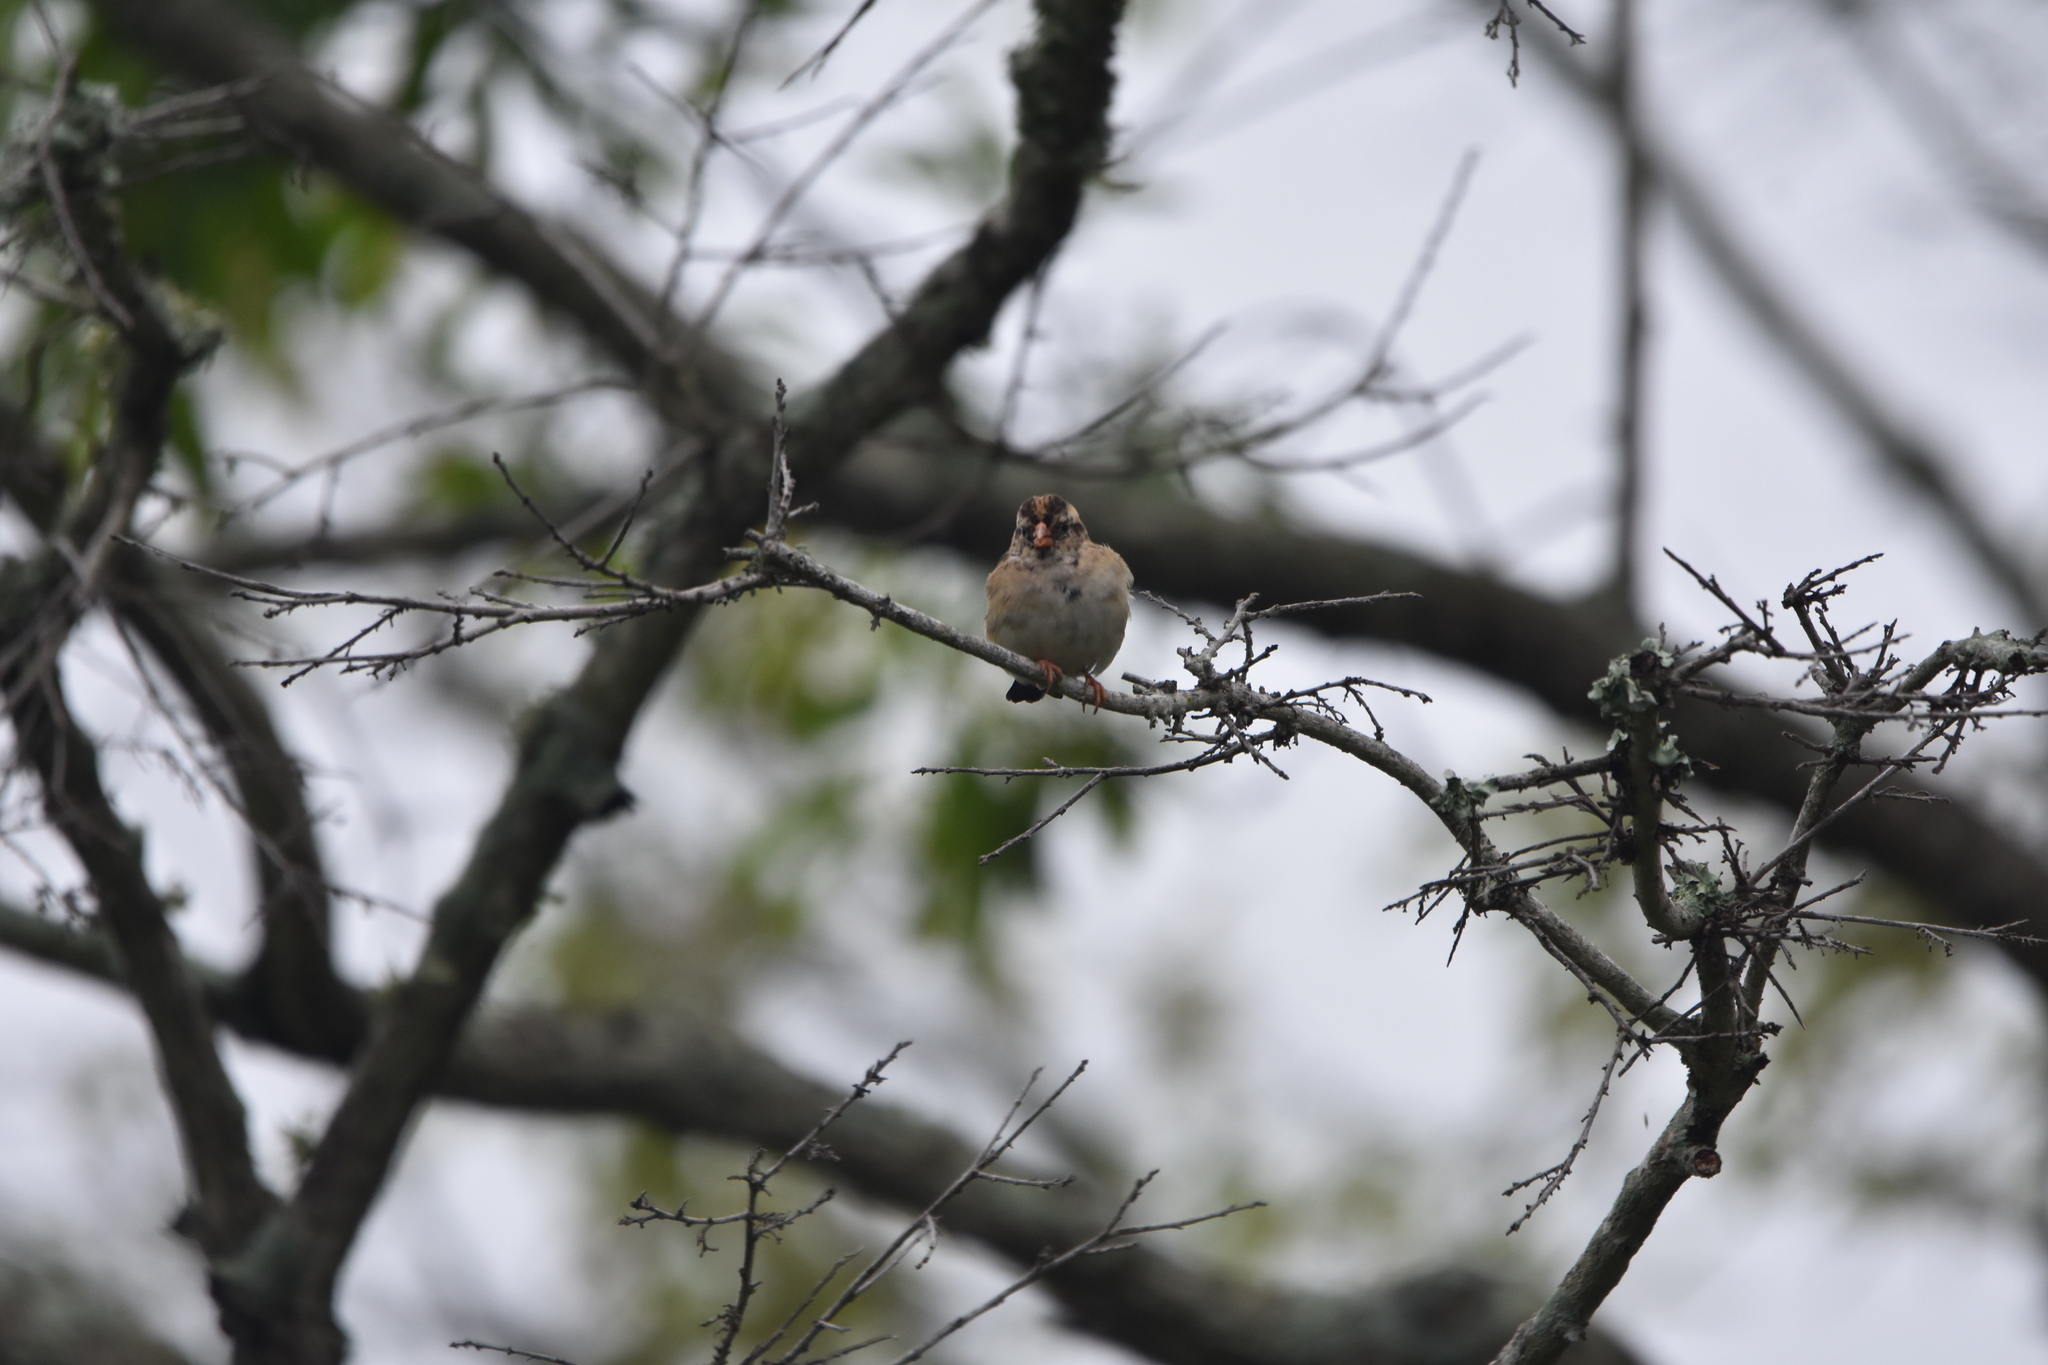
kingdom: Animalia
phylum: Chordata
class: Aves
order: Passeriformes
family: Viduidae
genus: Vidua
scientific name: Vidua macroura
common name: Pin-tailed whydah
